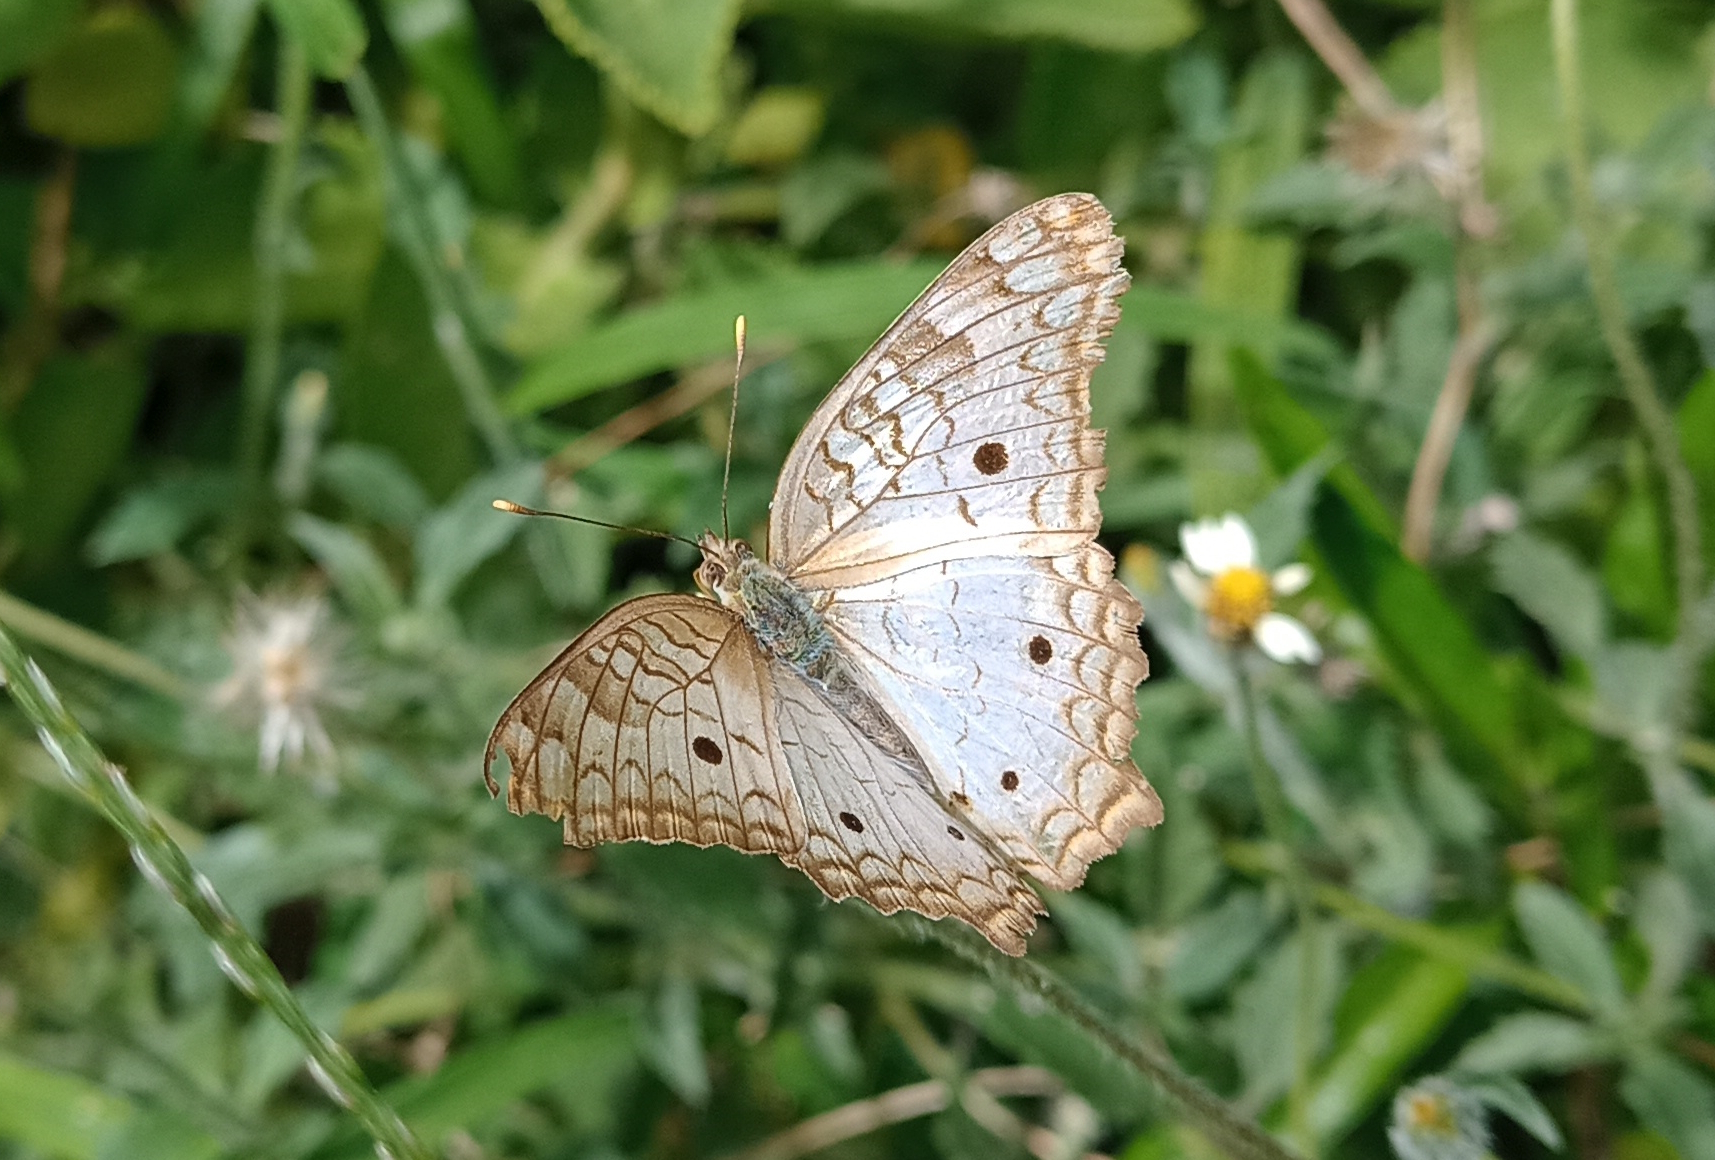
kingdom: Animalia
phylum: Arthropoda
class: Insecta
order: Lepidoptera
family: Nymphalidae
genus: Anartia
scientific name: Anartia jatrophae
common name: White peacock
